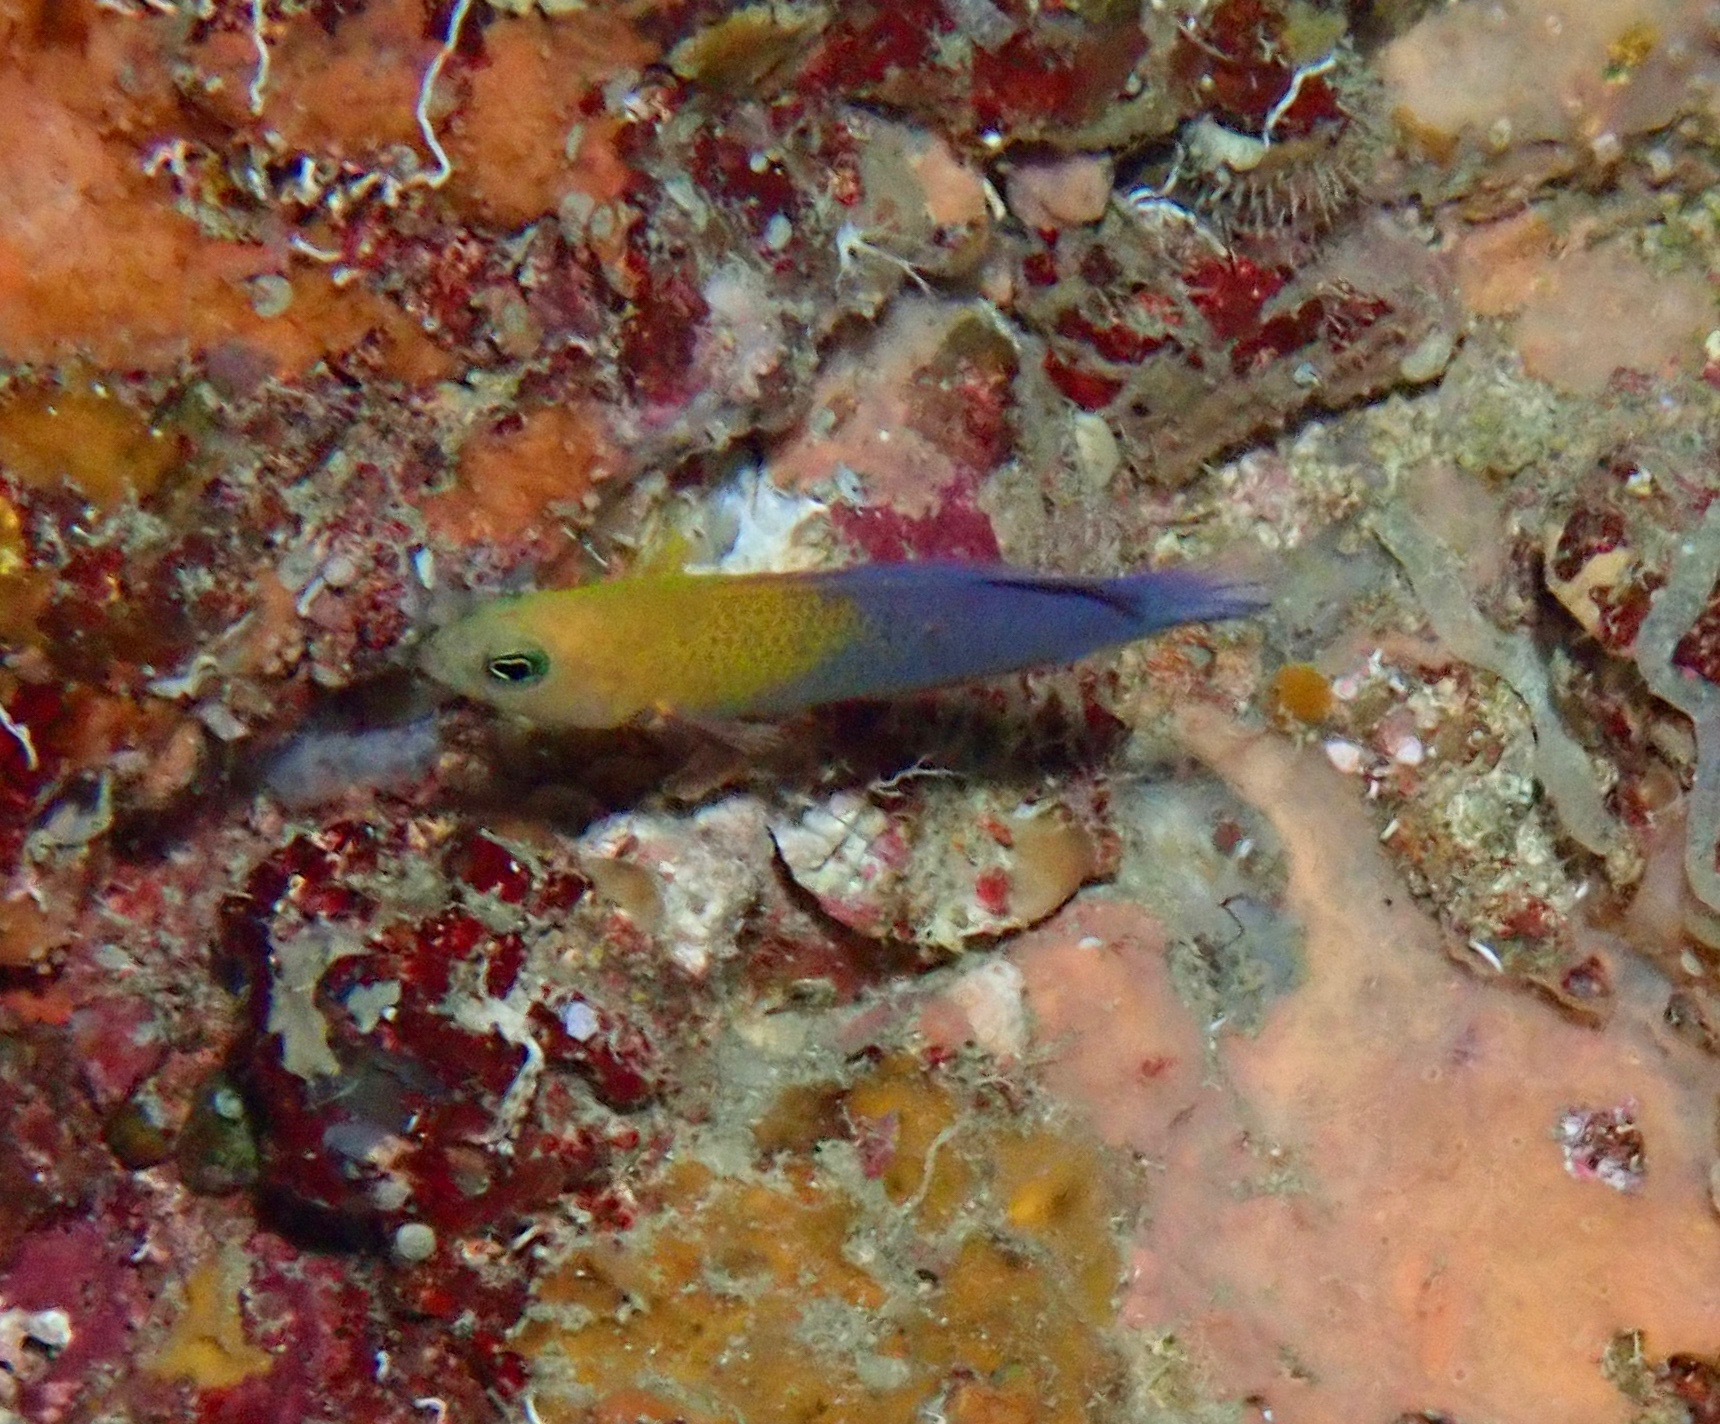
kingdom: Animalia
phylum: Chordata
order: Perciformes
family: Pseudochromidae
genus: Pseudochromis
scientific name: Pseudochromis andamanensis
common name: Andaman dottyback
